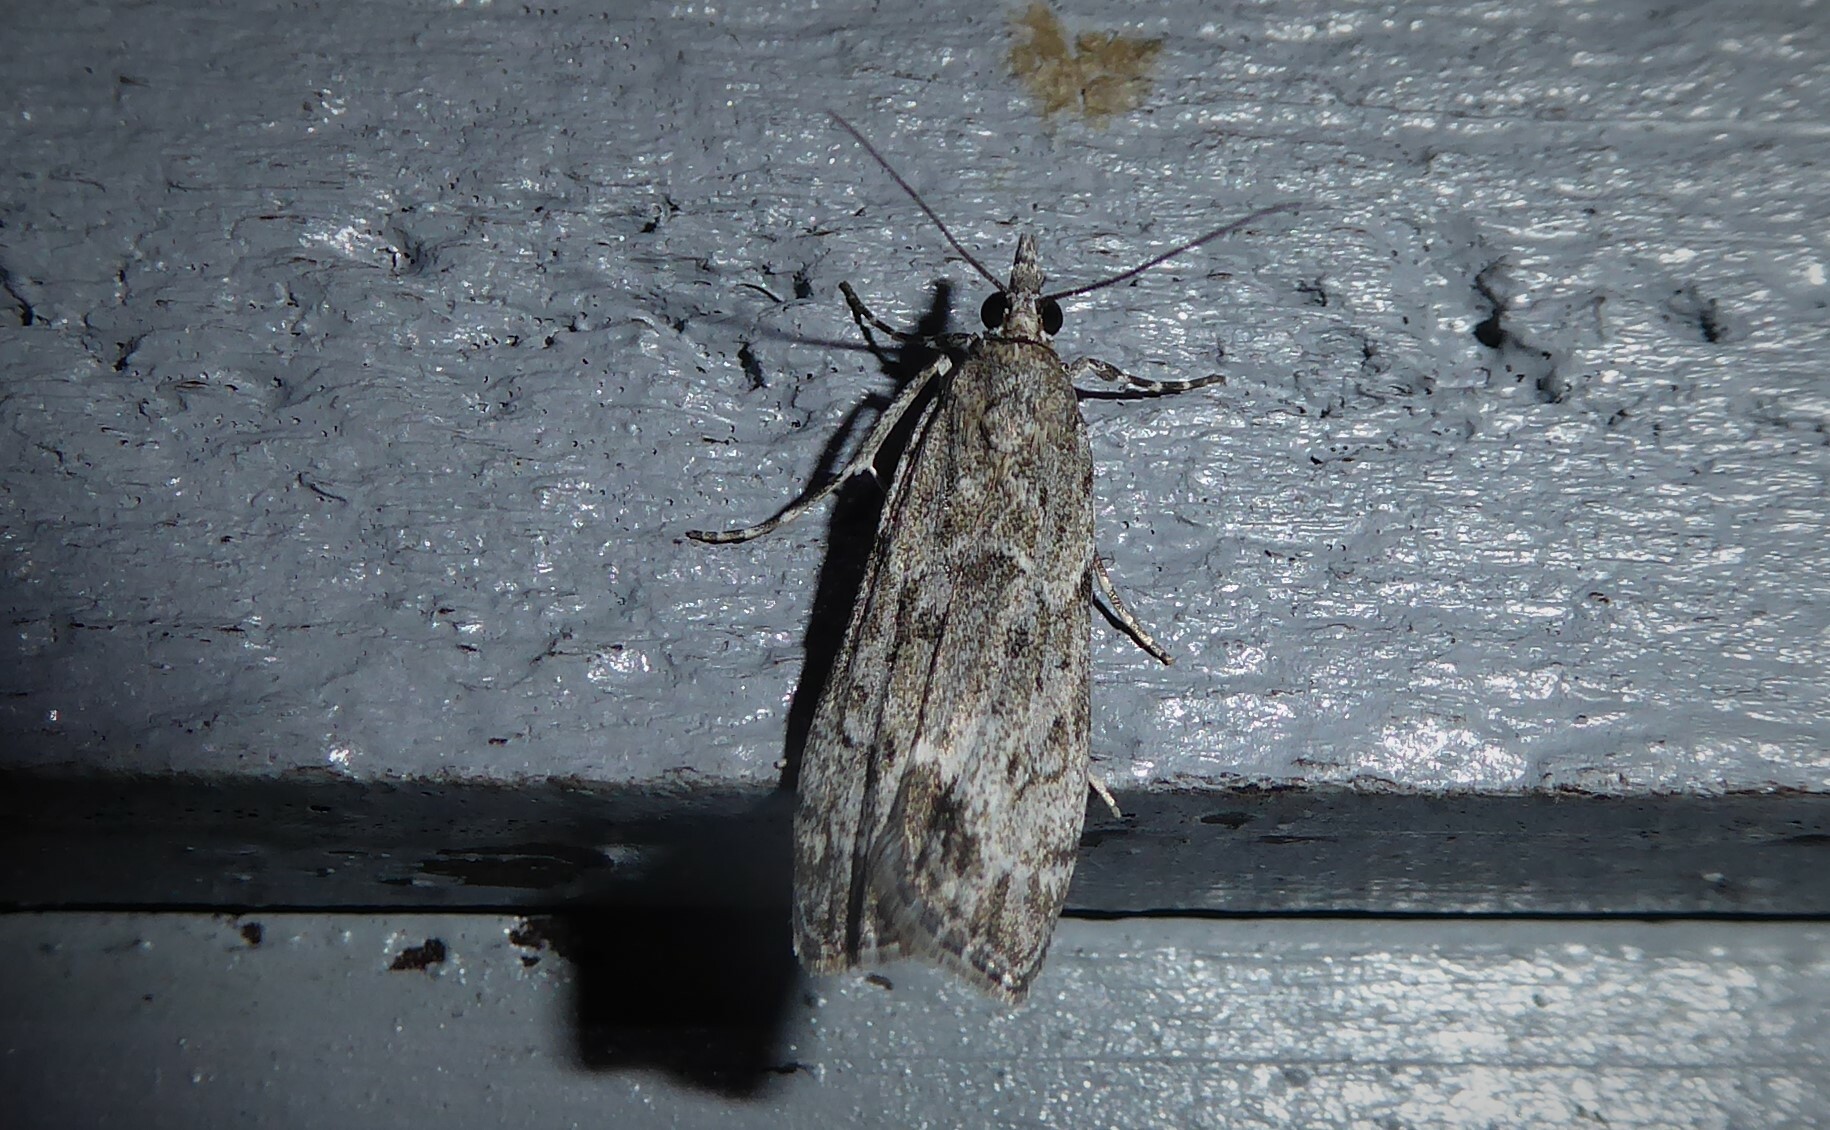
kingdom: Animalia
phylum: Arthropoda
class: Insecta
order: Lepidoptera
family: Crambidae
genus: Eudonia
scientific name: Eudonia rakaiensis
